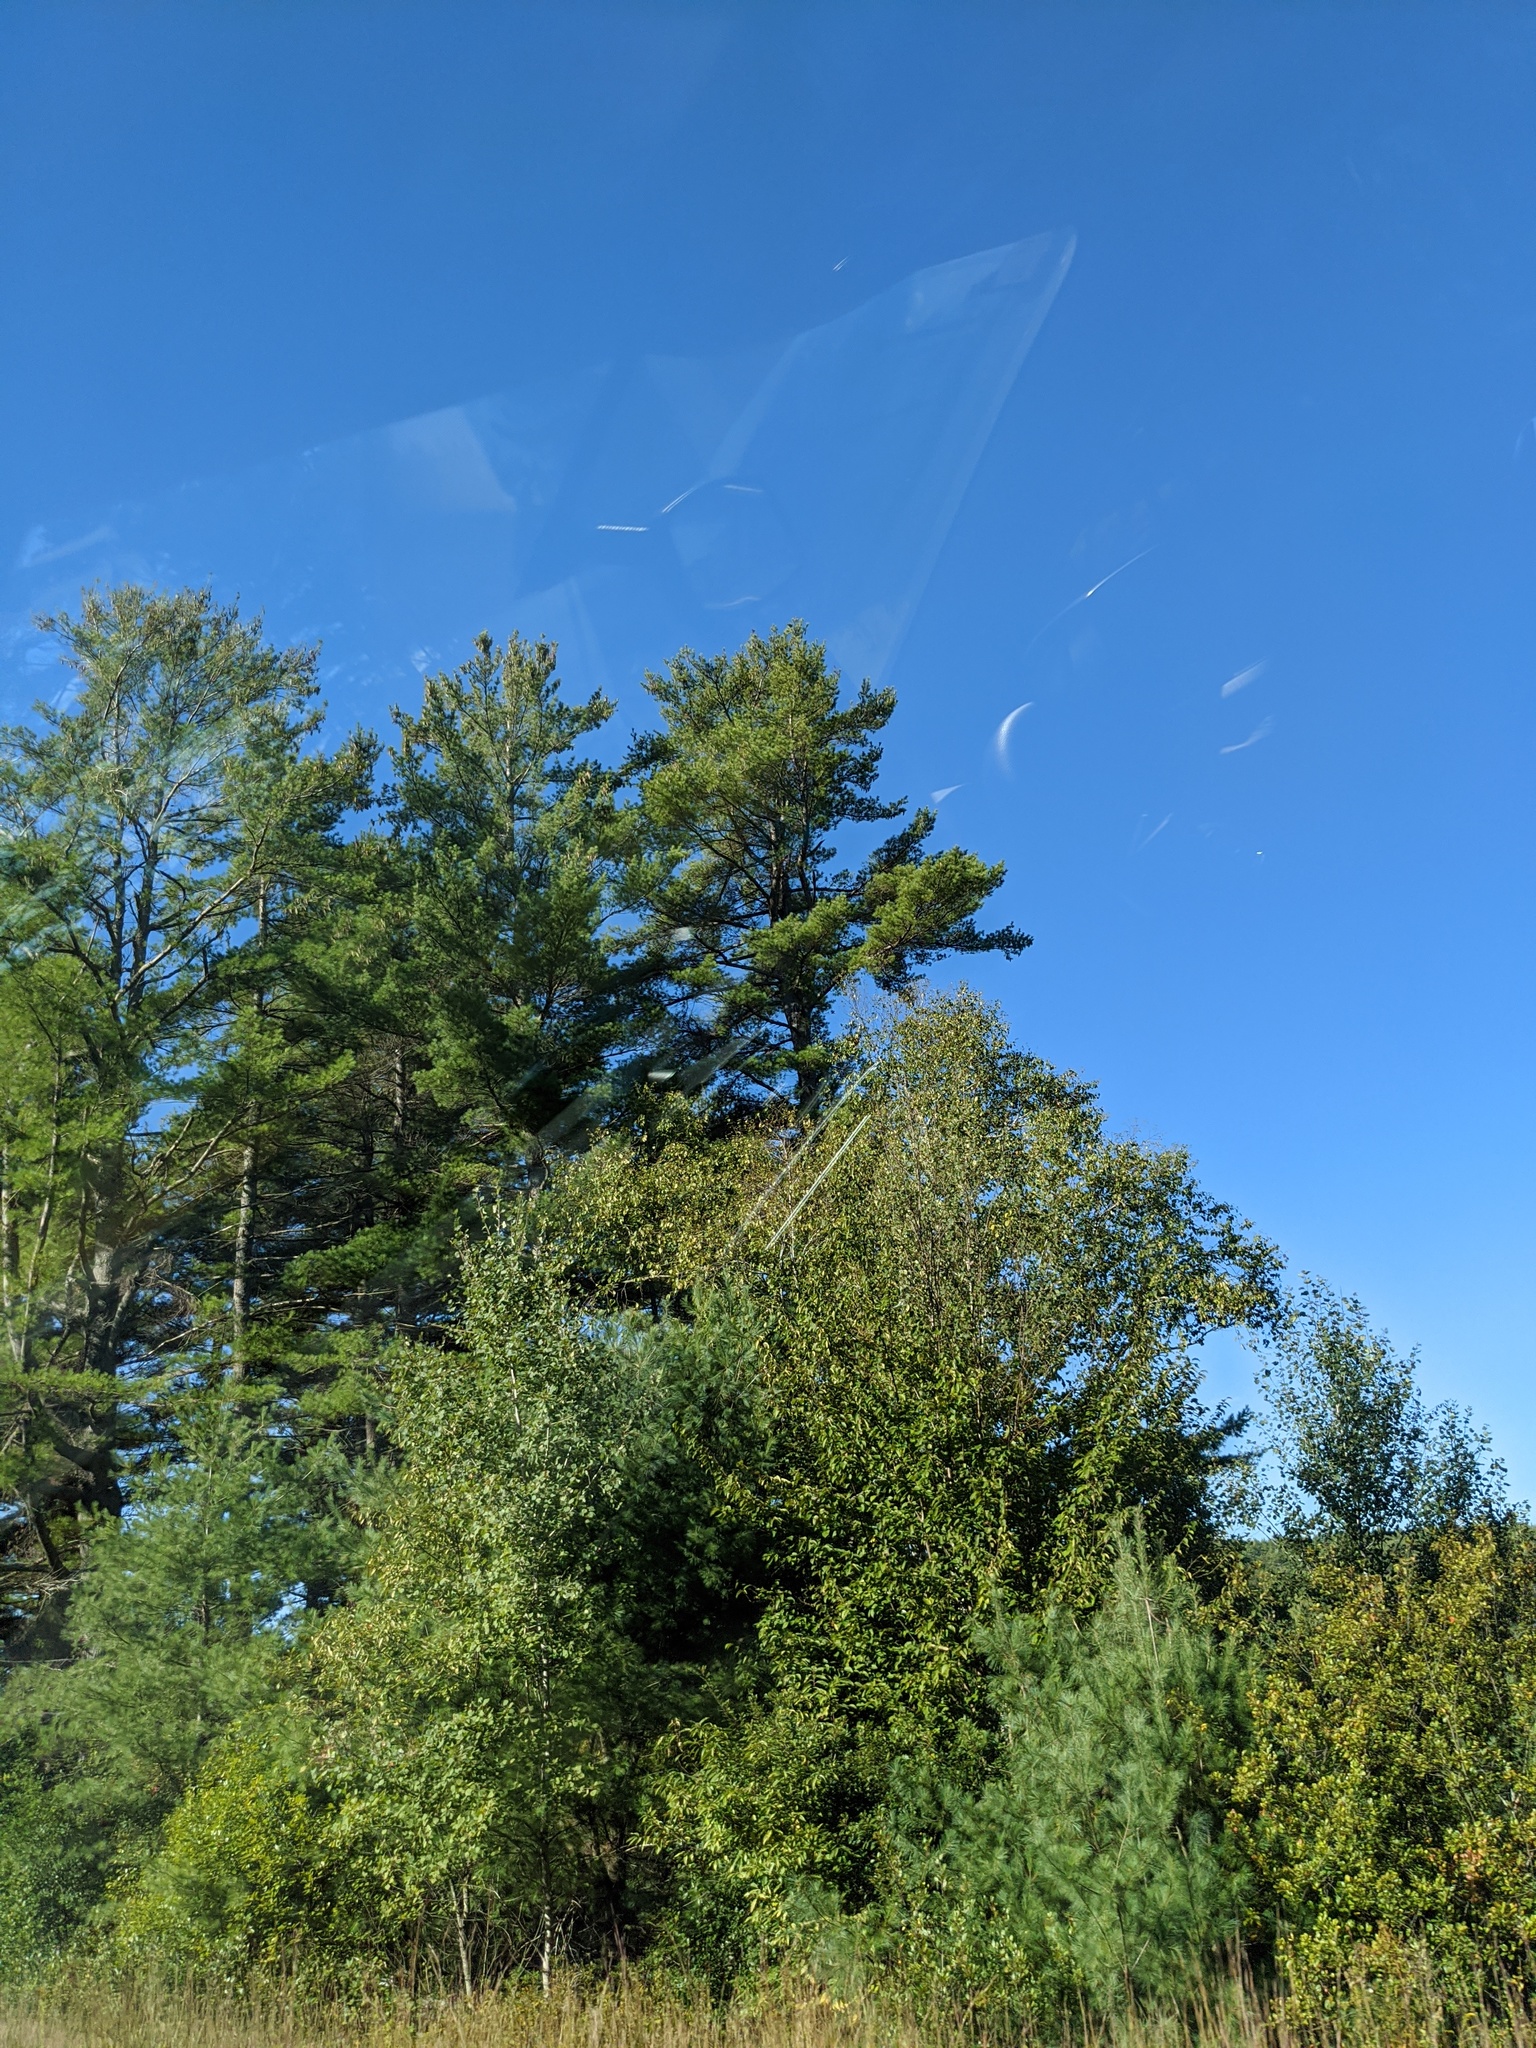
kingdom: Plantae
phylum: Tracheophyta
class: Pinopsida
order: Pinales
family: Pinaceae
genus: Pinus
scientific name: Pinus strobus
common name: Weymouth pine
